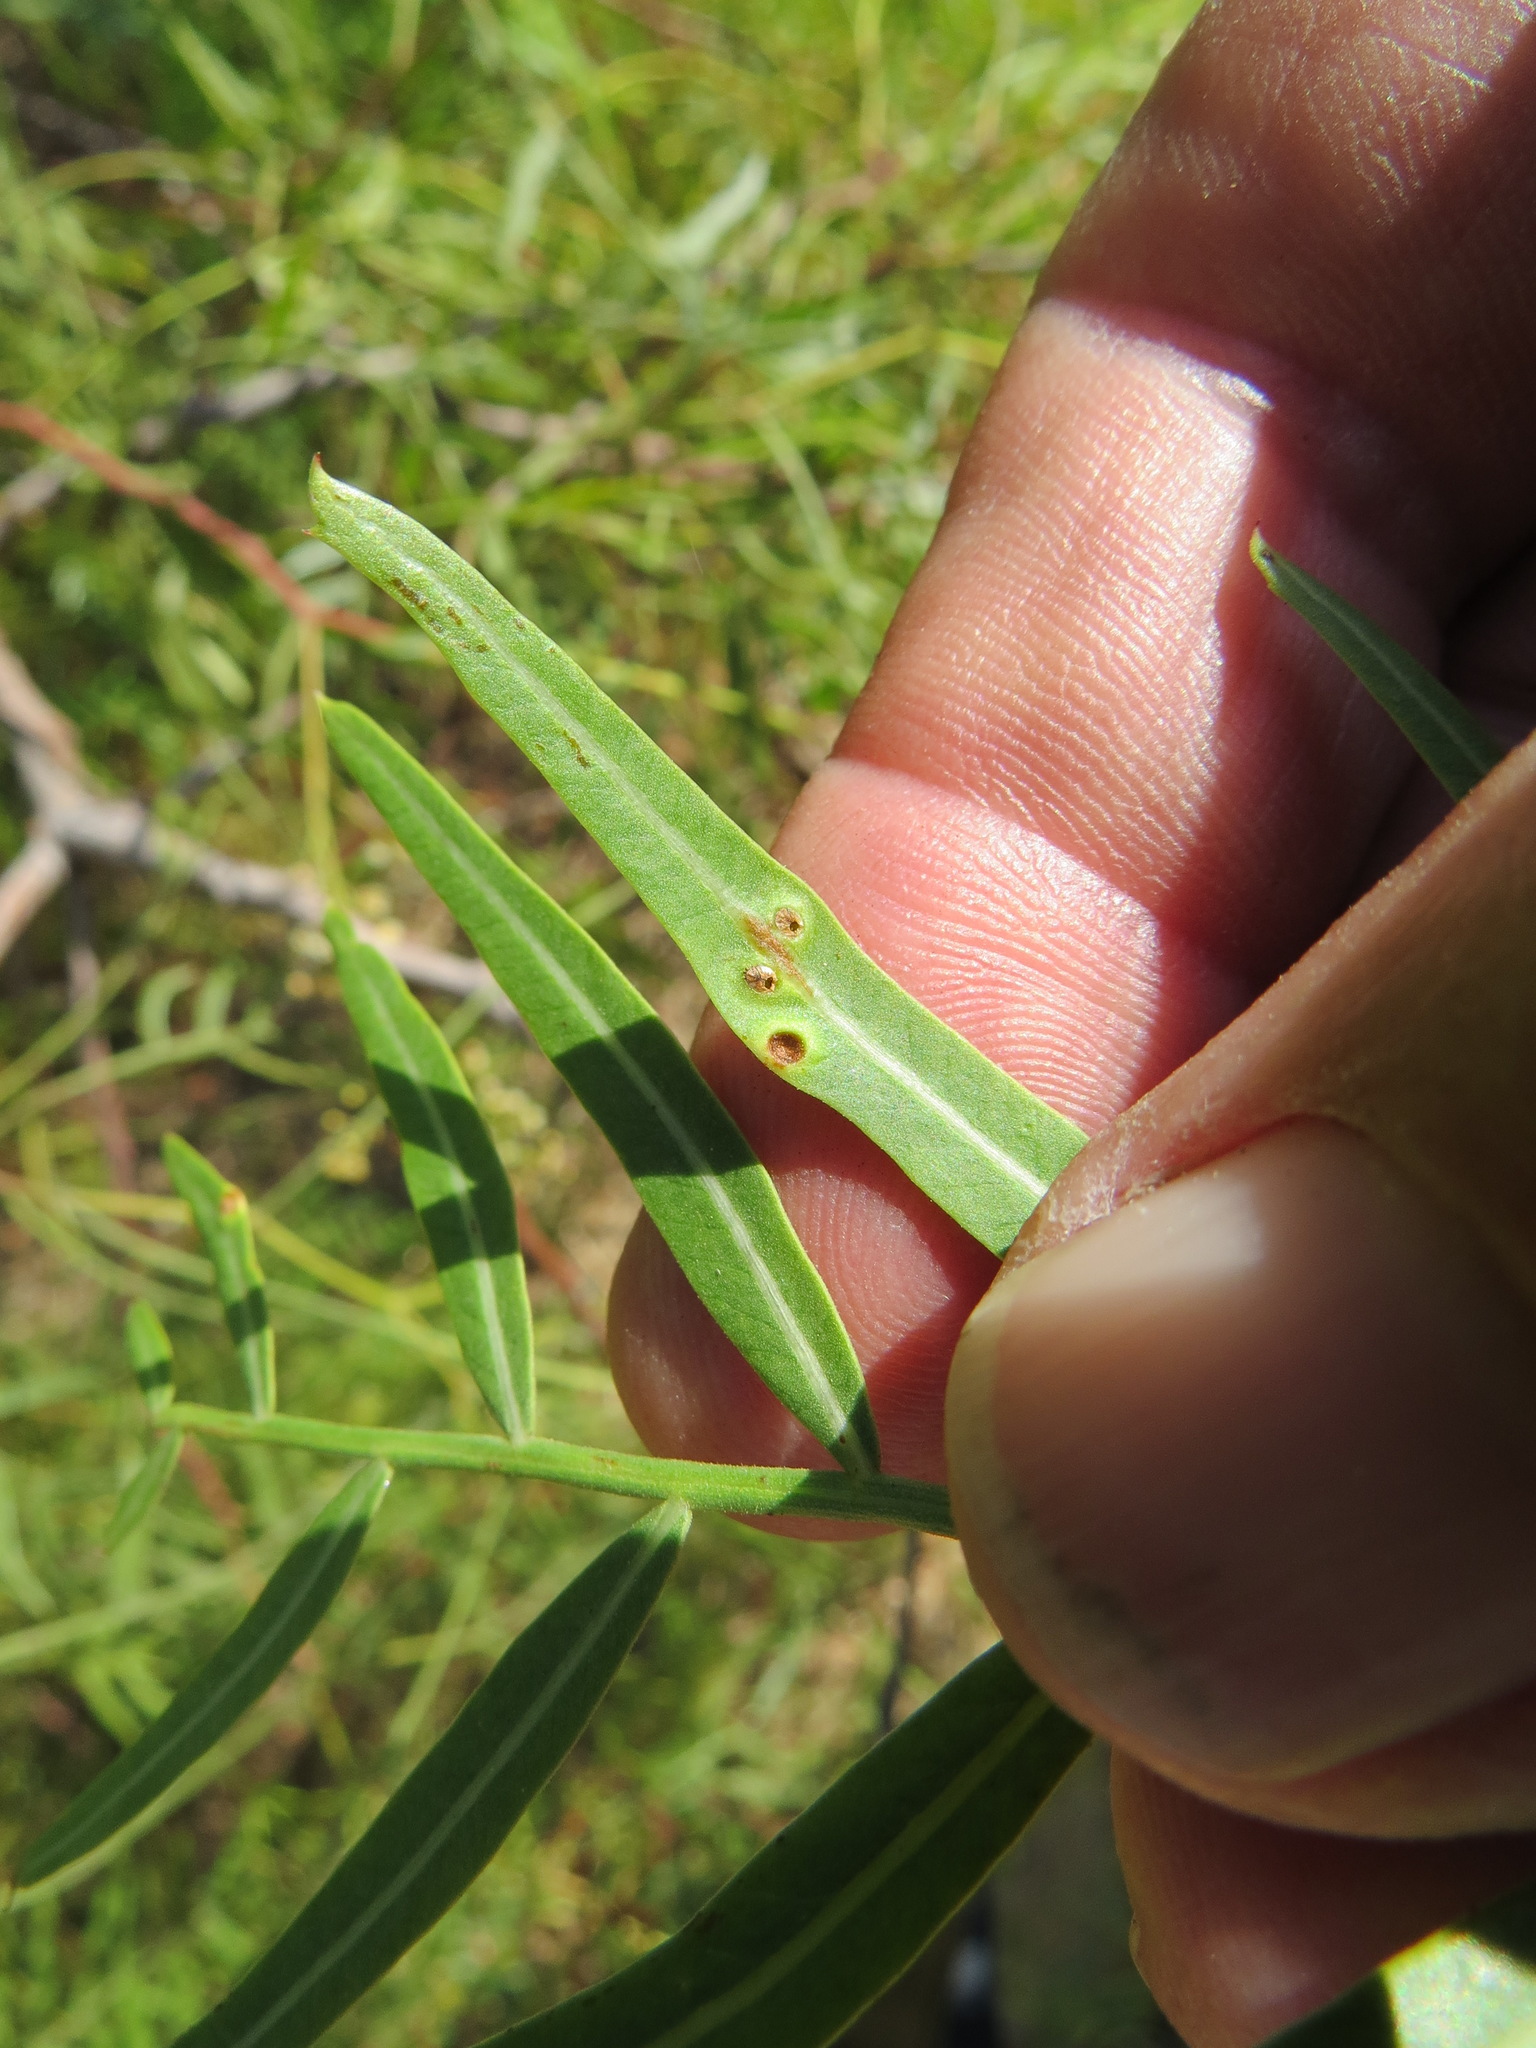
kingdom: Animalia
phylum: Arthropoda
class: Insecta
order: Hemiptera
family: Calophyidae
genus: Calophya
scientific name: Calophya schini
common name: Pepper tree psyllid
